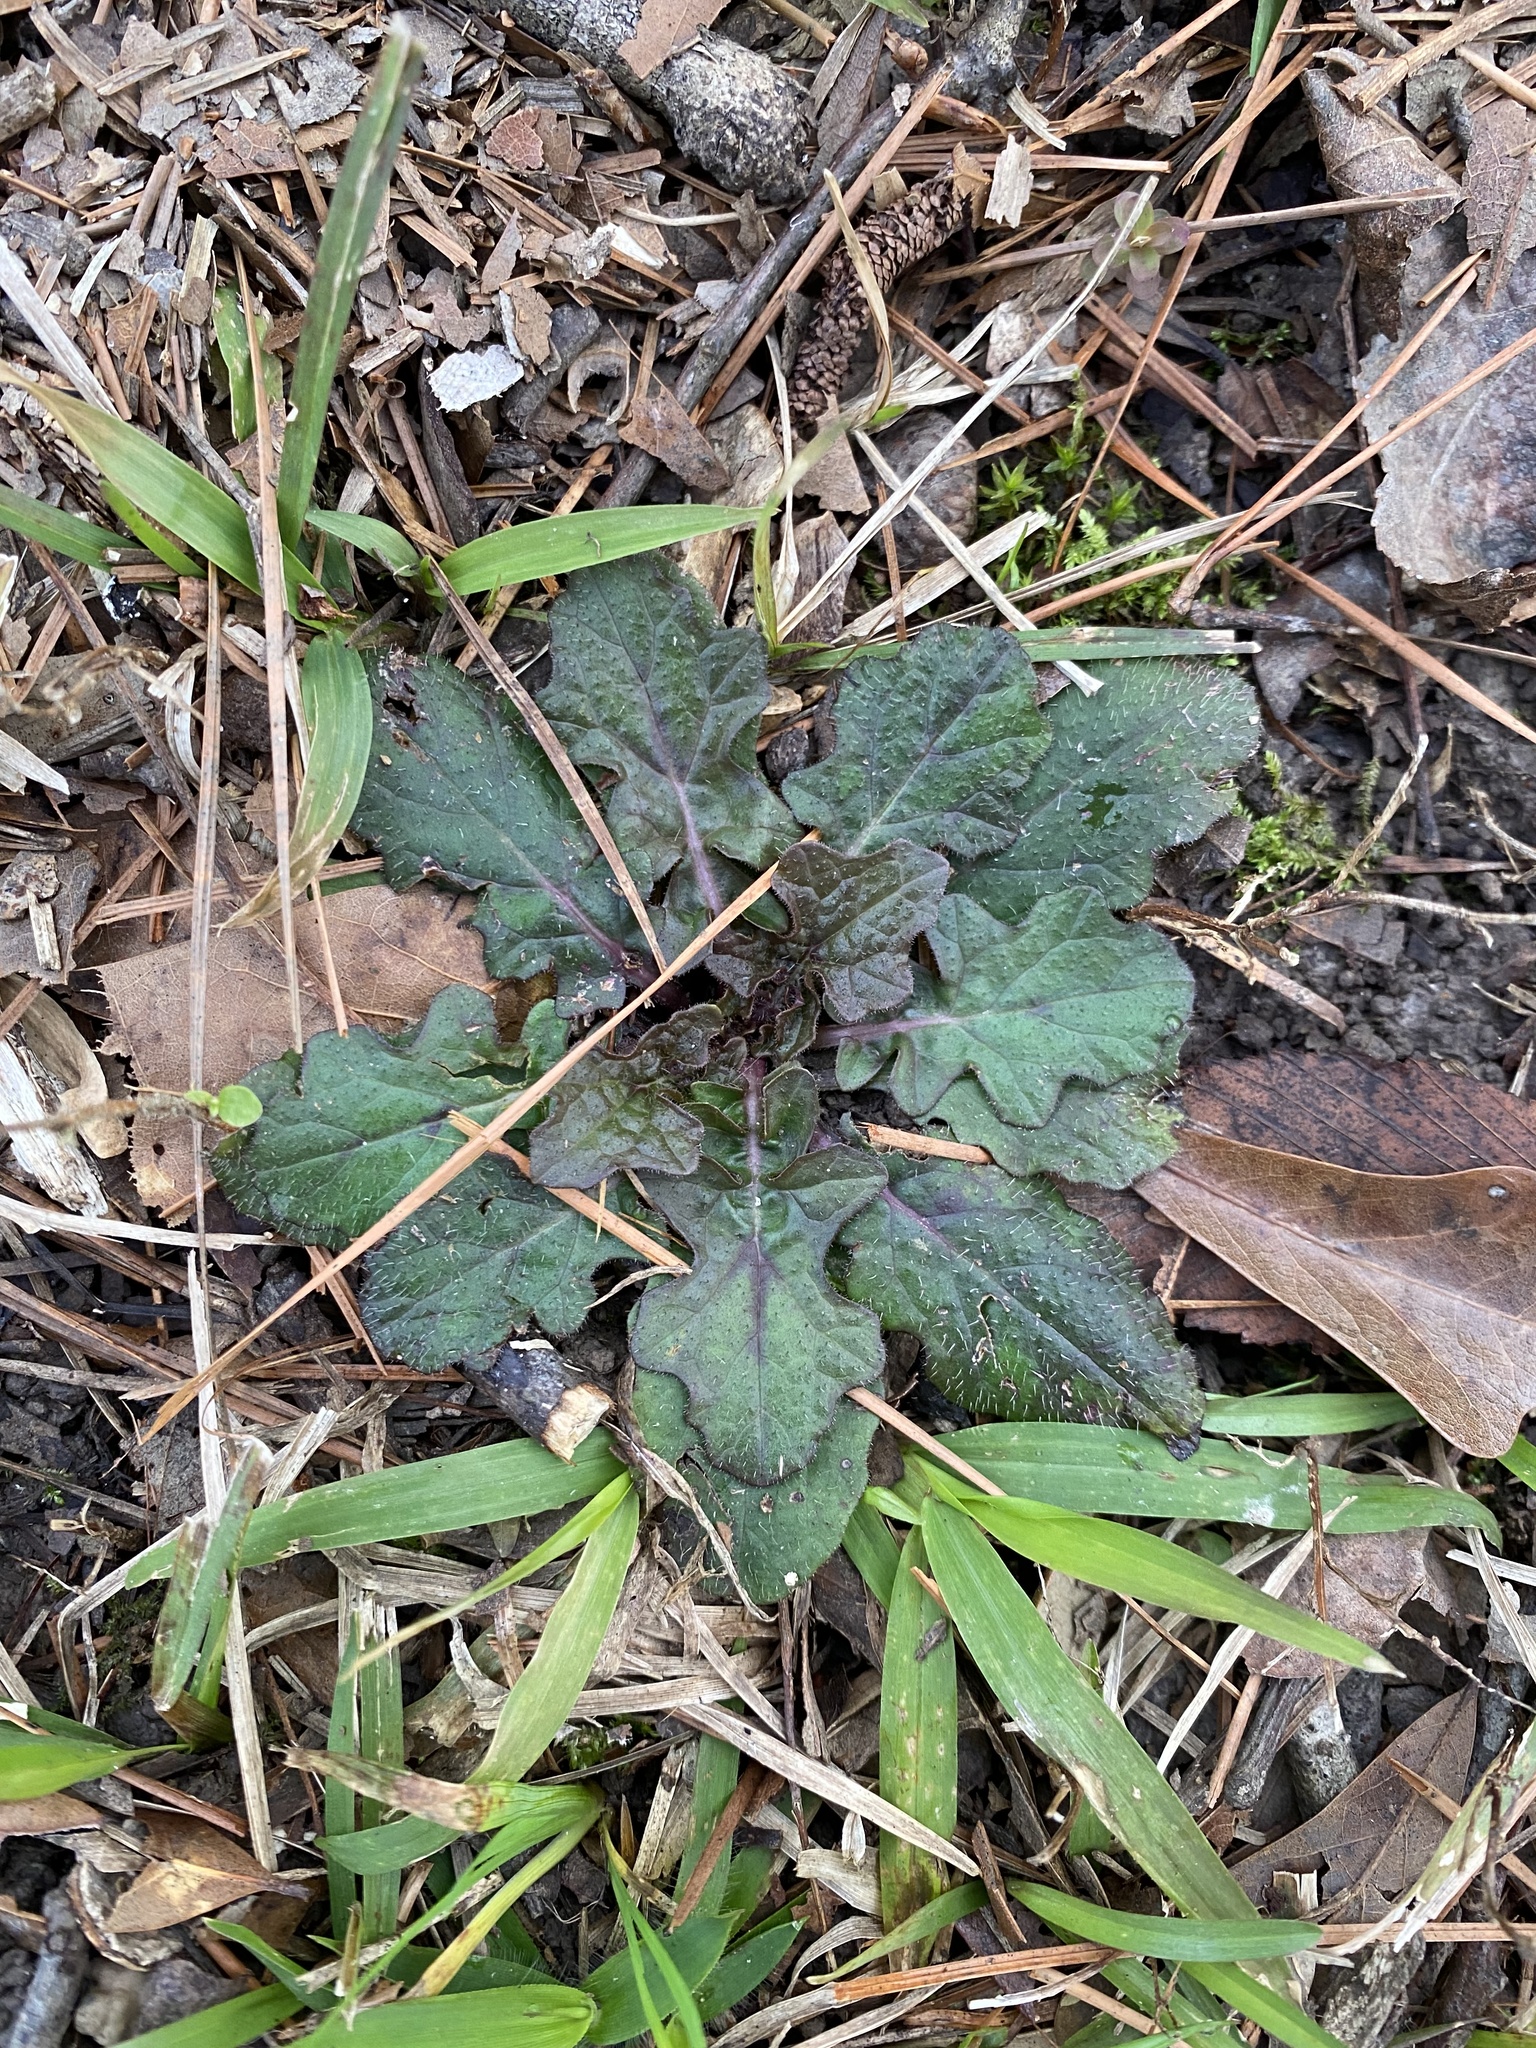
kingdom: Plantae
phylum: Tracheophyta
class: Magnoliopsida
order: Lamiales
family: Lamiaceae
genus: Salvia
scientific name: Salvia lyrata
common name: Cancerweed
